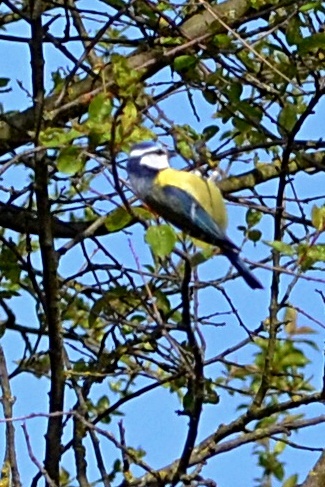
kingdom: Animalia
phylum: Chordata
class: Aves
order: Passeriformes
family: Paridae
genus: Cyanistes
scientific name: Cyanistes caeruleus
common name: Eurasian blue tit
